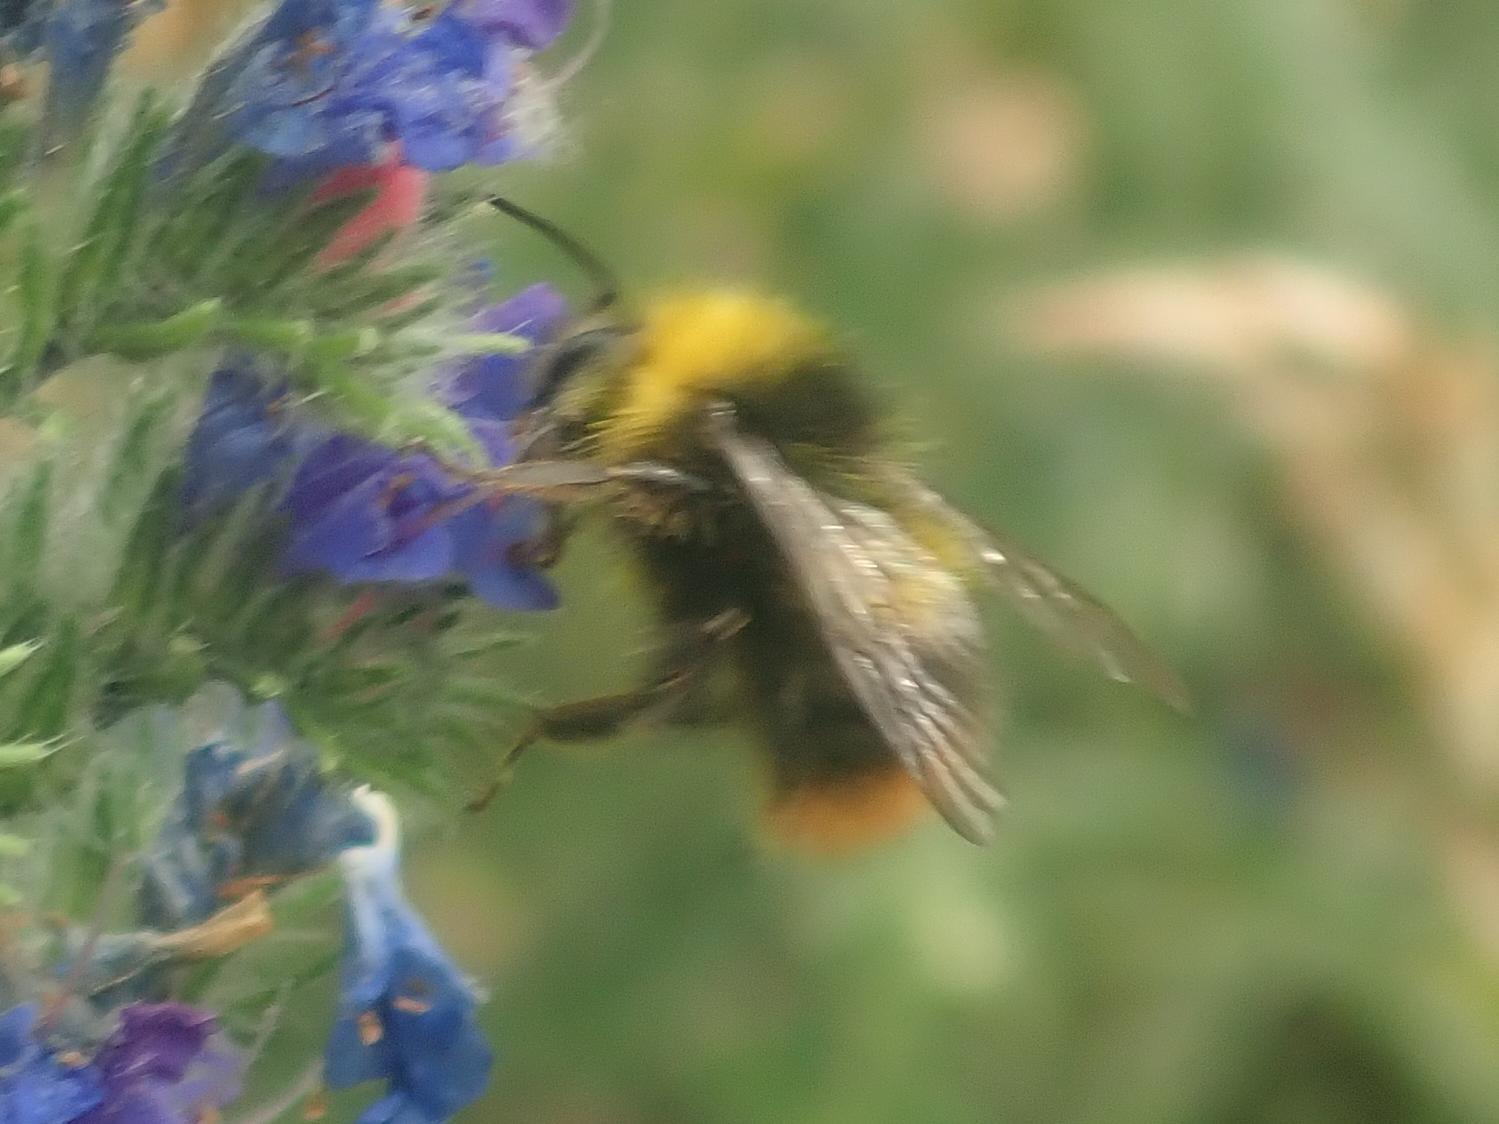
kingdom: Animalia
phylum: Arthropoda
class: Insecta
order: Hymenoptera
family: Apidae
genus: Bombus
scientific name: Bombus pratorum
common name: Early humble-bee
